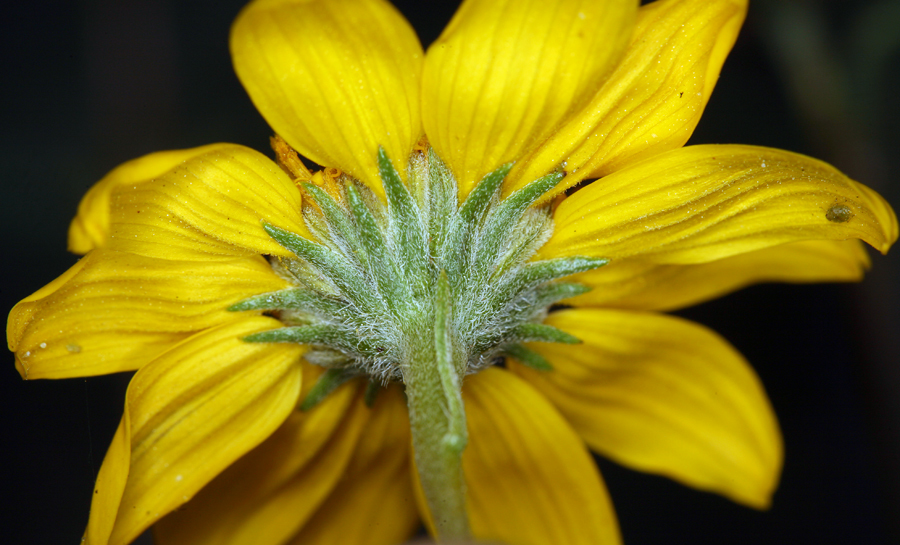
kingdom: Plantae
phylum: Tracheophyta
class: Magnoliopsida
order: Asterales
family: Asteraceae
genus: Heliomeris
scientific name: Heliomeris multiflora
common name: Showy goldeneye
